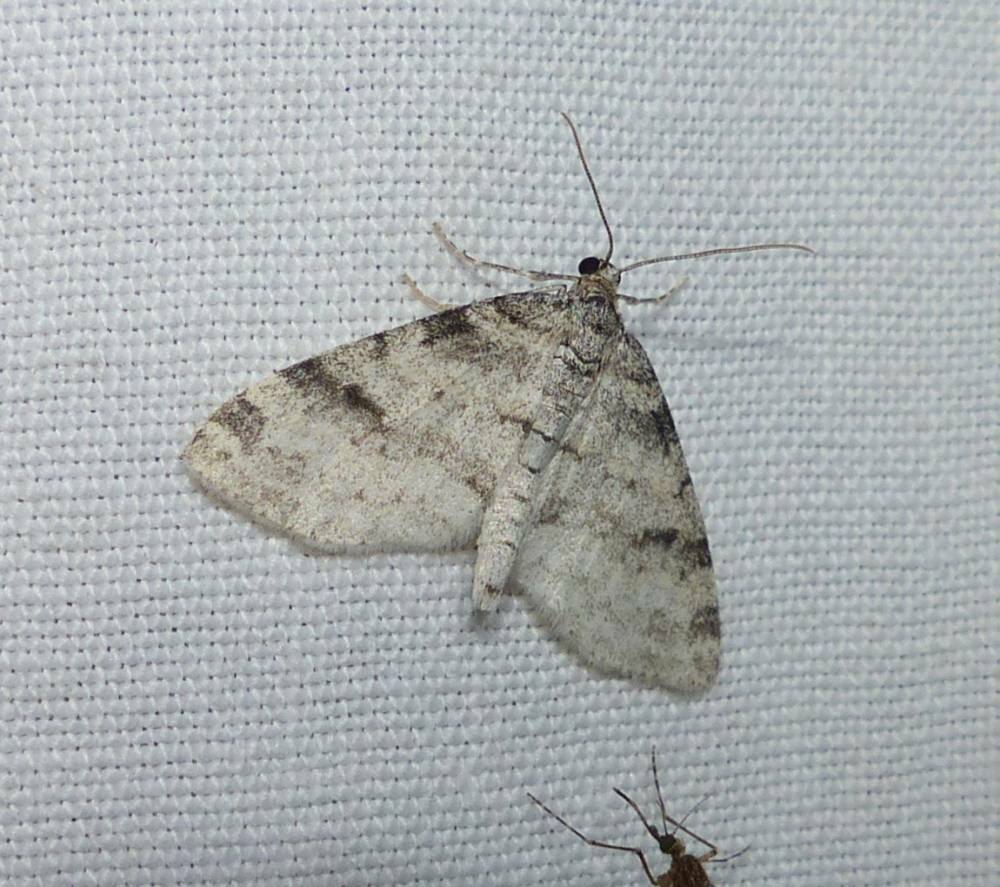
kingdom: Animalia
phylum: Arthropoda
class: Insecta
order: Lepidoptera
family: Geometridae
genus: Lobophora
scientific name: Lobophora nivigerata
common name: Powdered bigwing
